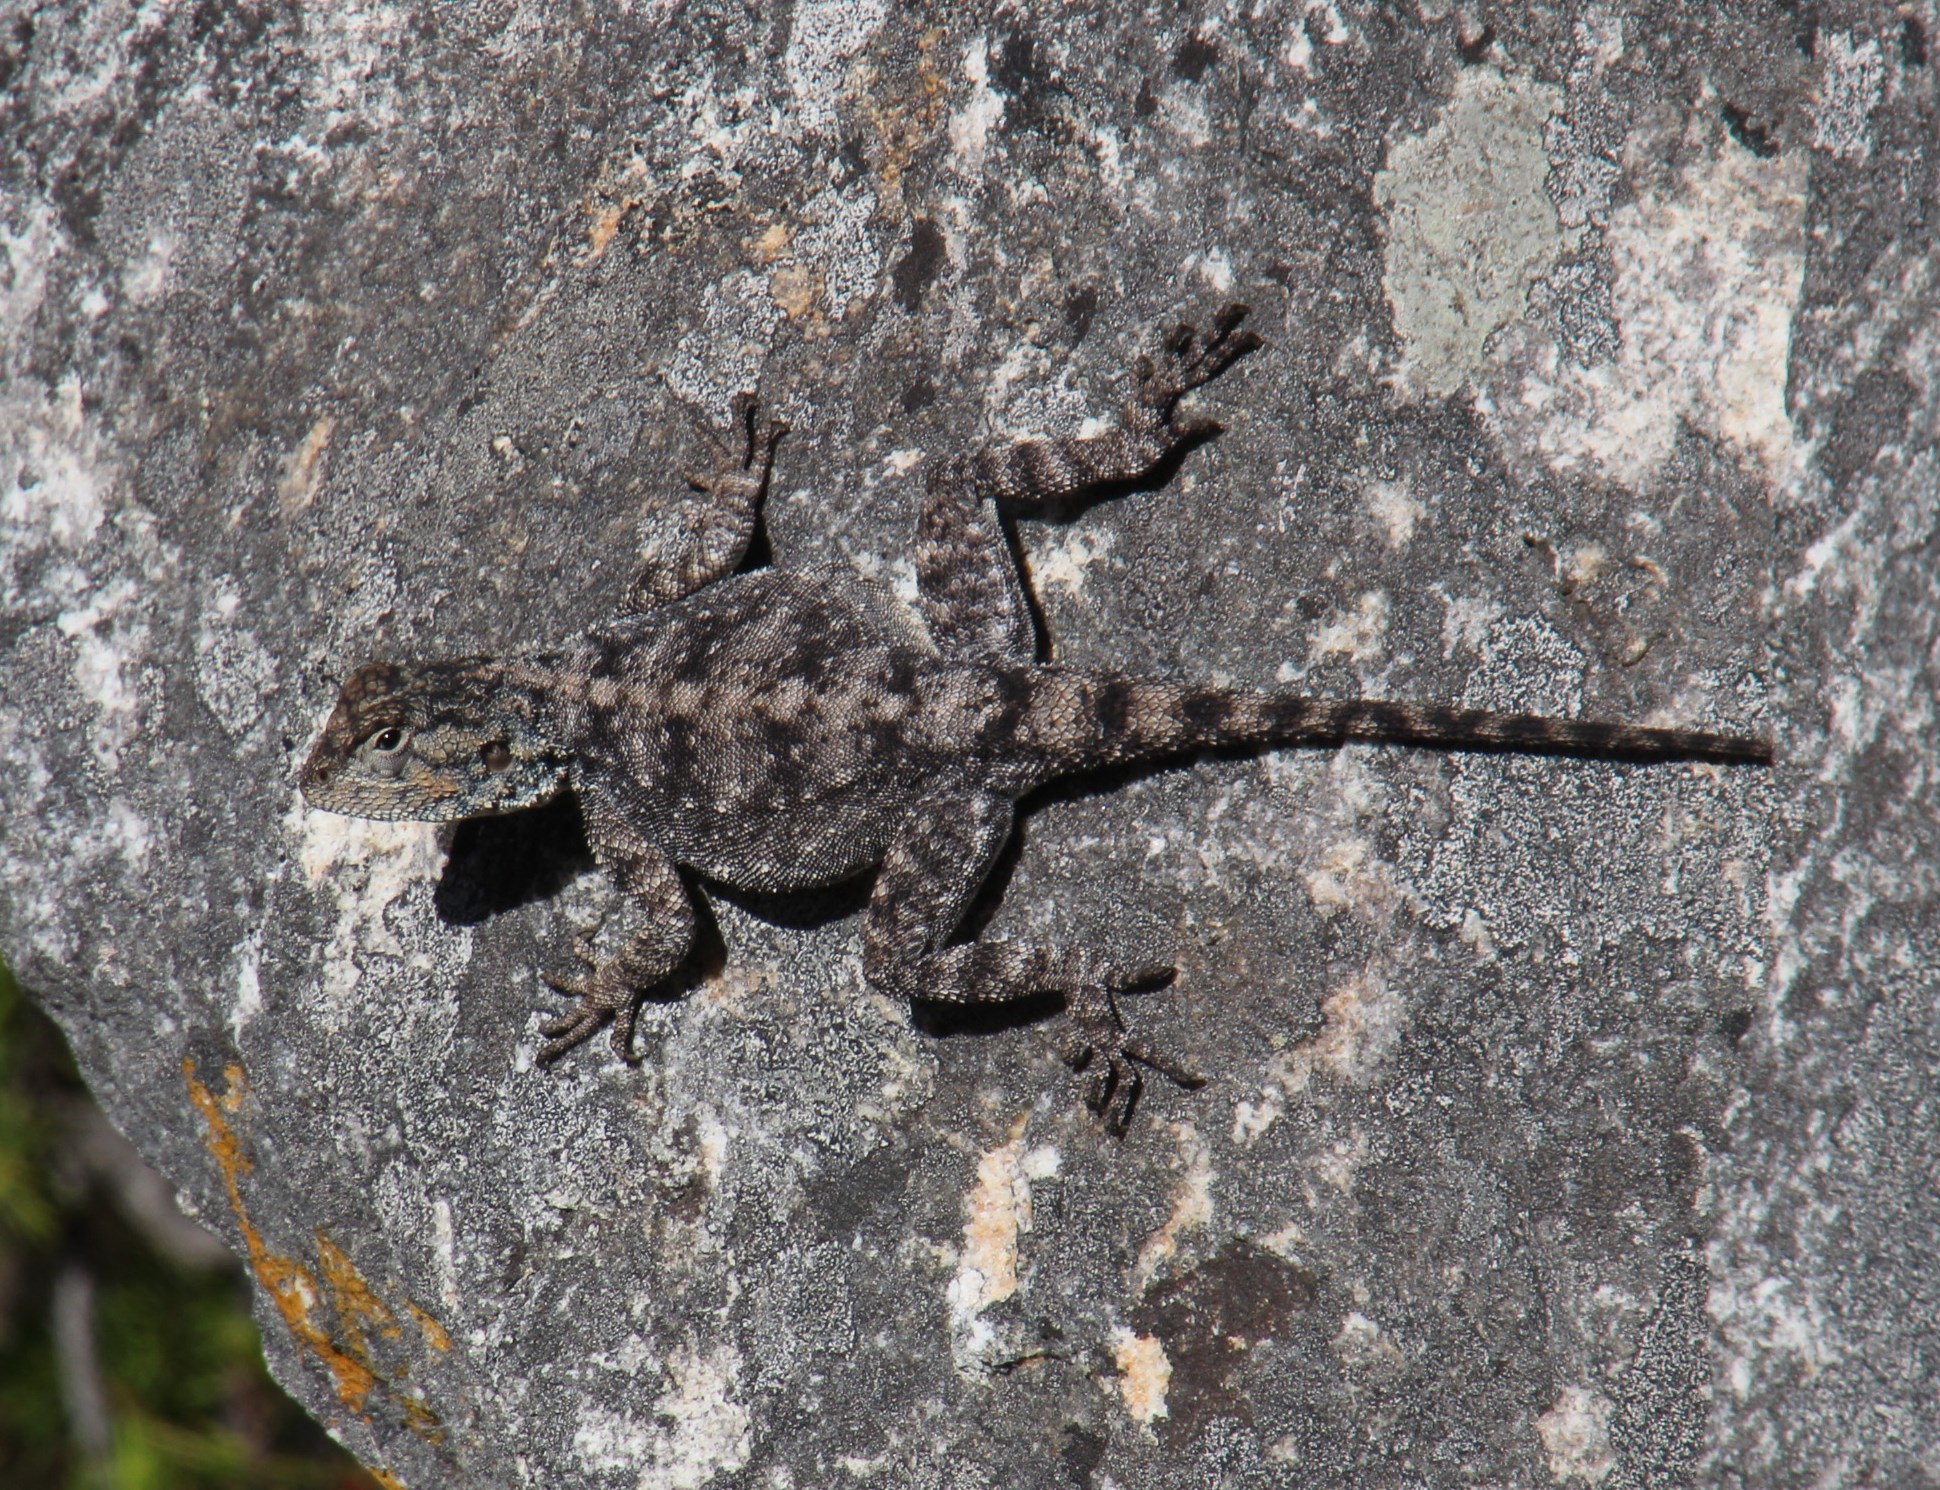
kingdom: Animalia
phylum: Chordata
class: Squamata
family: Agamidae
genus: Agama
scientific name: Agama atra
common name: Southern african rock agama
